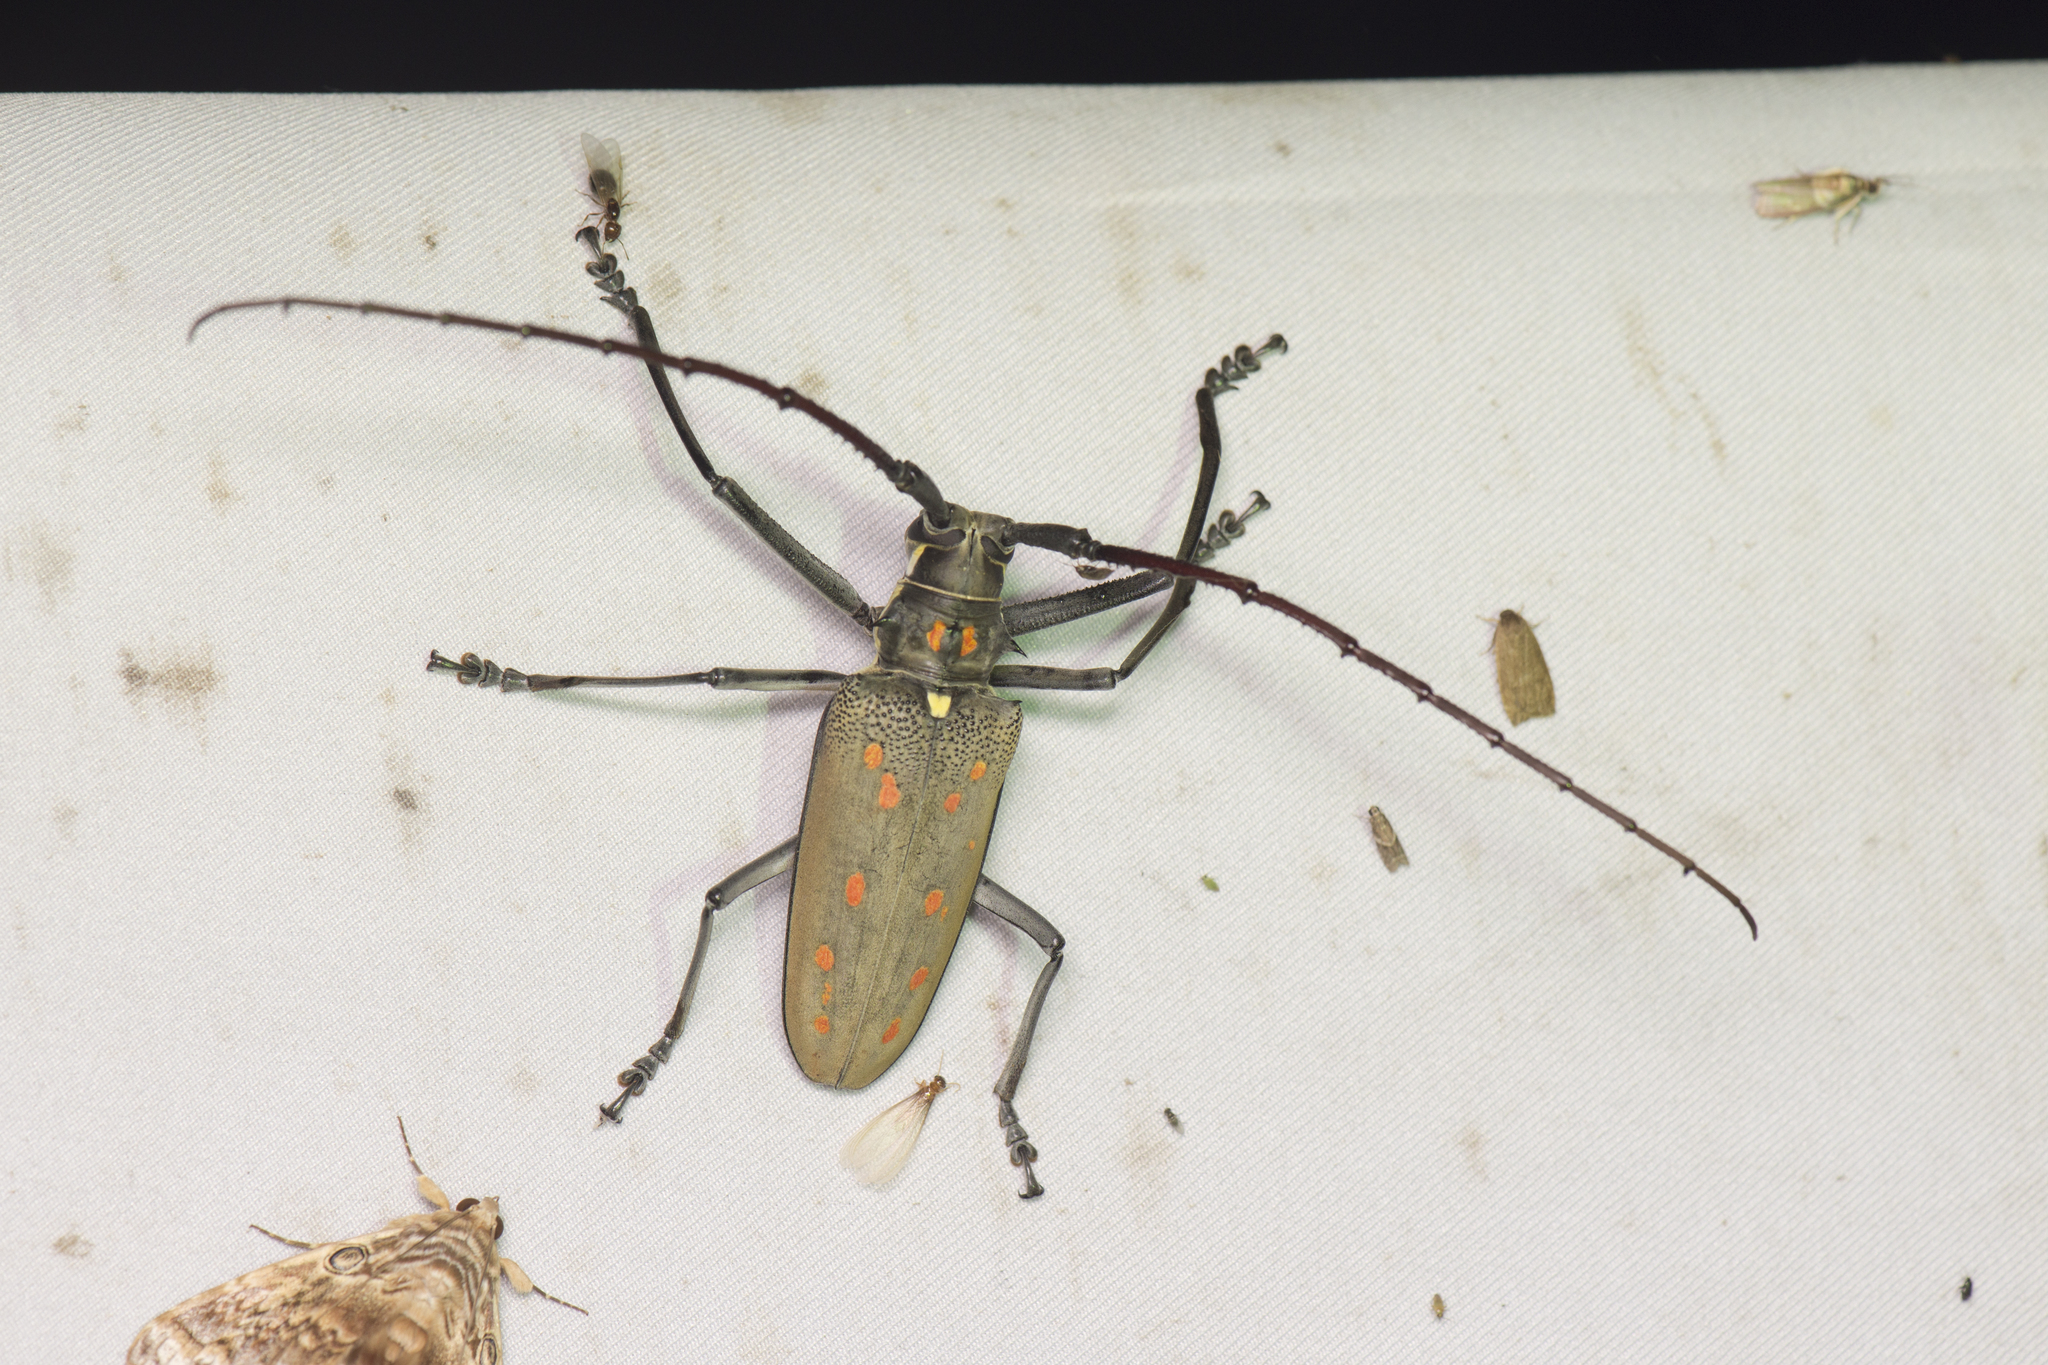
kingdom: Animalia
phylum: Arthropoda
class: Insecta
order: Coleoptera
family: Cerambycidae
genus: Batocera
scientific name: Batocera davidis
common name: Long-horned beetle
